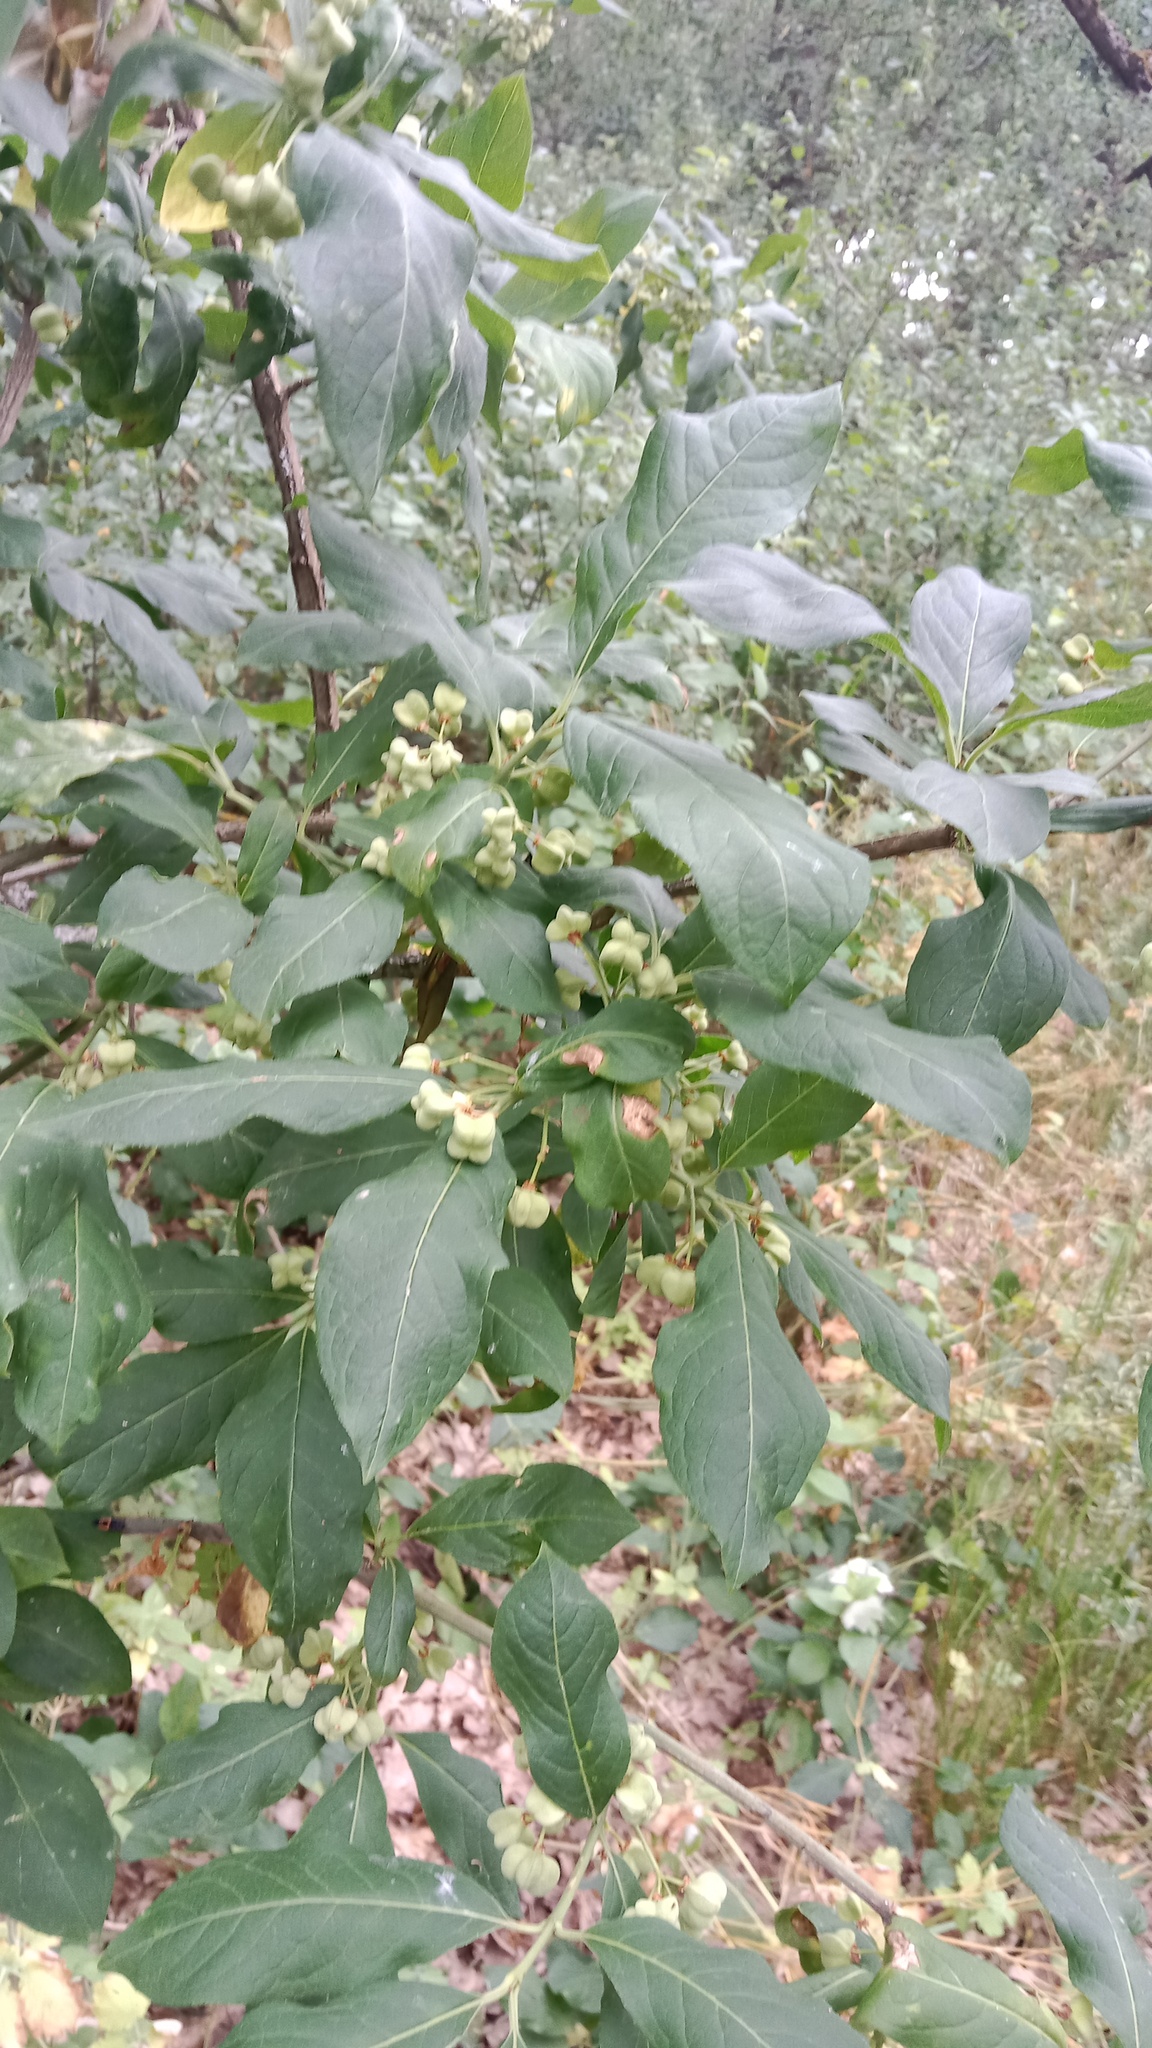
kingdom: Plantae
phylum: Tracheophyta
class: Magnoliopsida
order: Celastrales
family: Celastraceae
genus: Euonymus
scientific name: Euonymus europaeus
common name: Spindle
